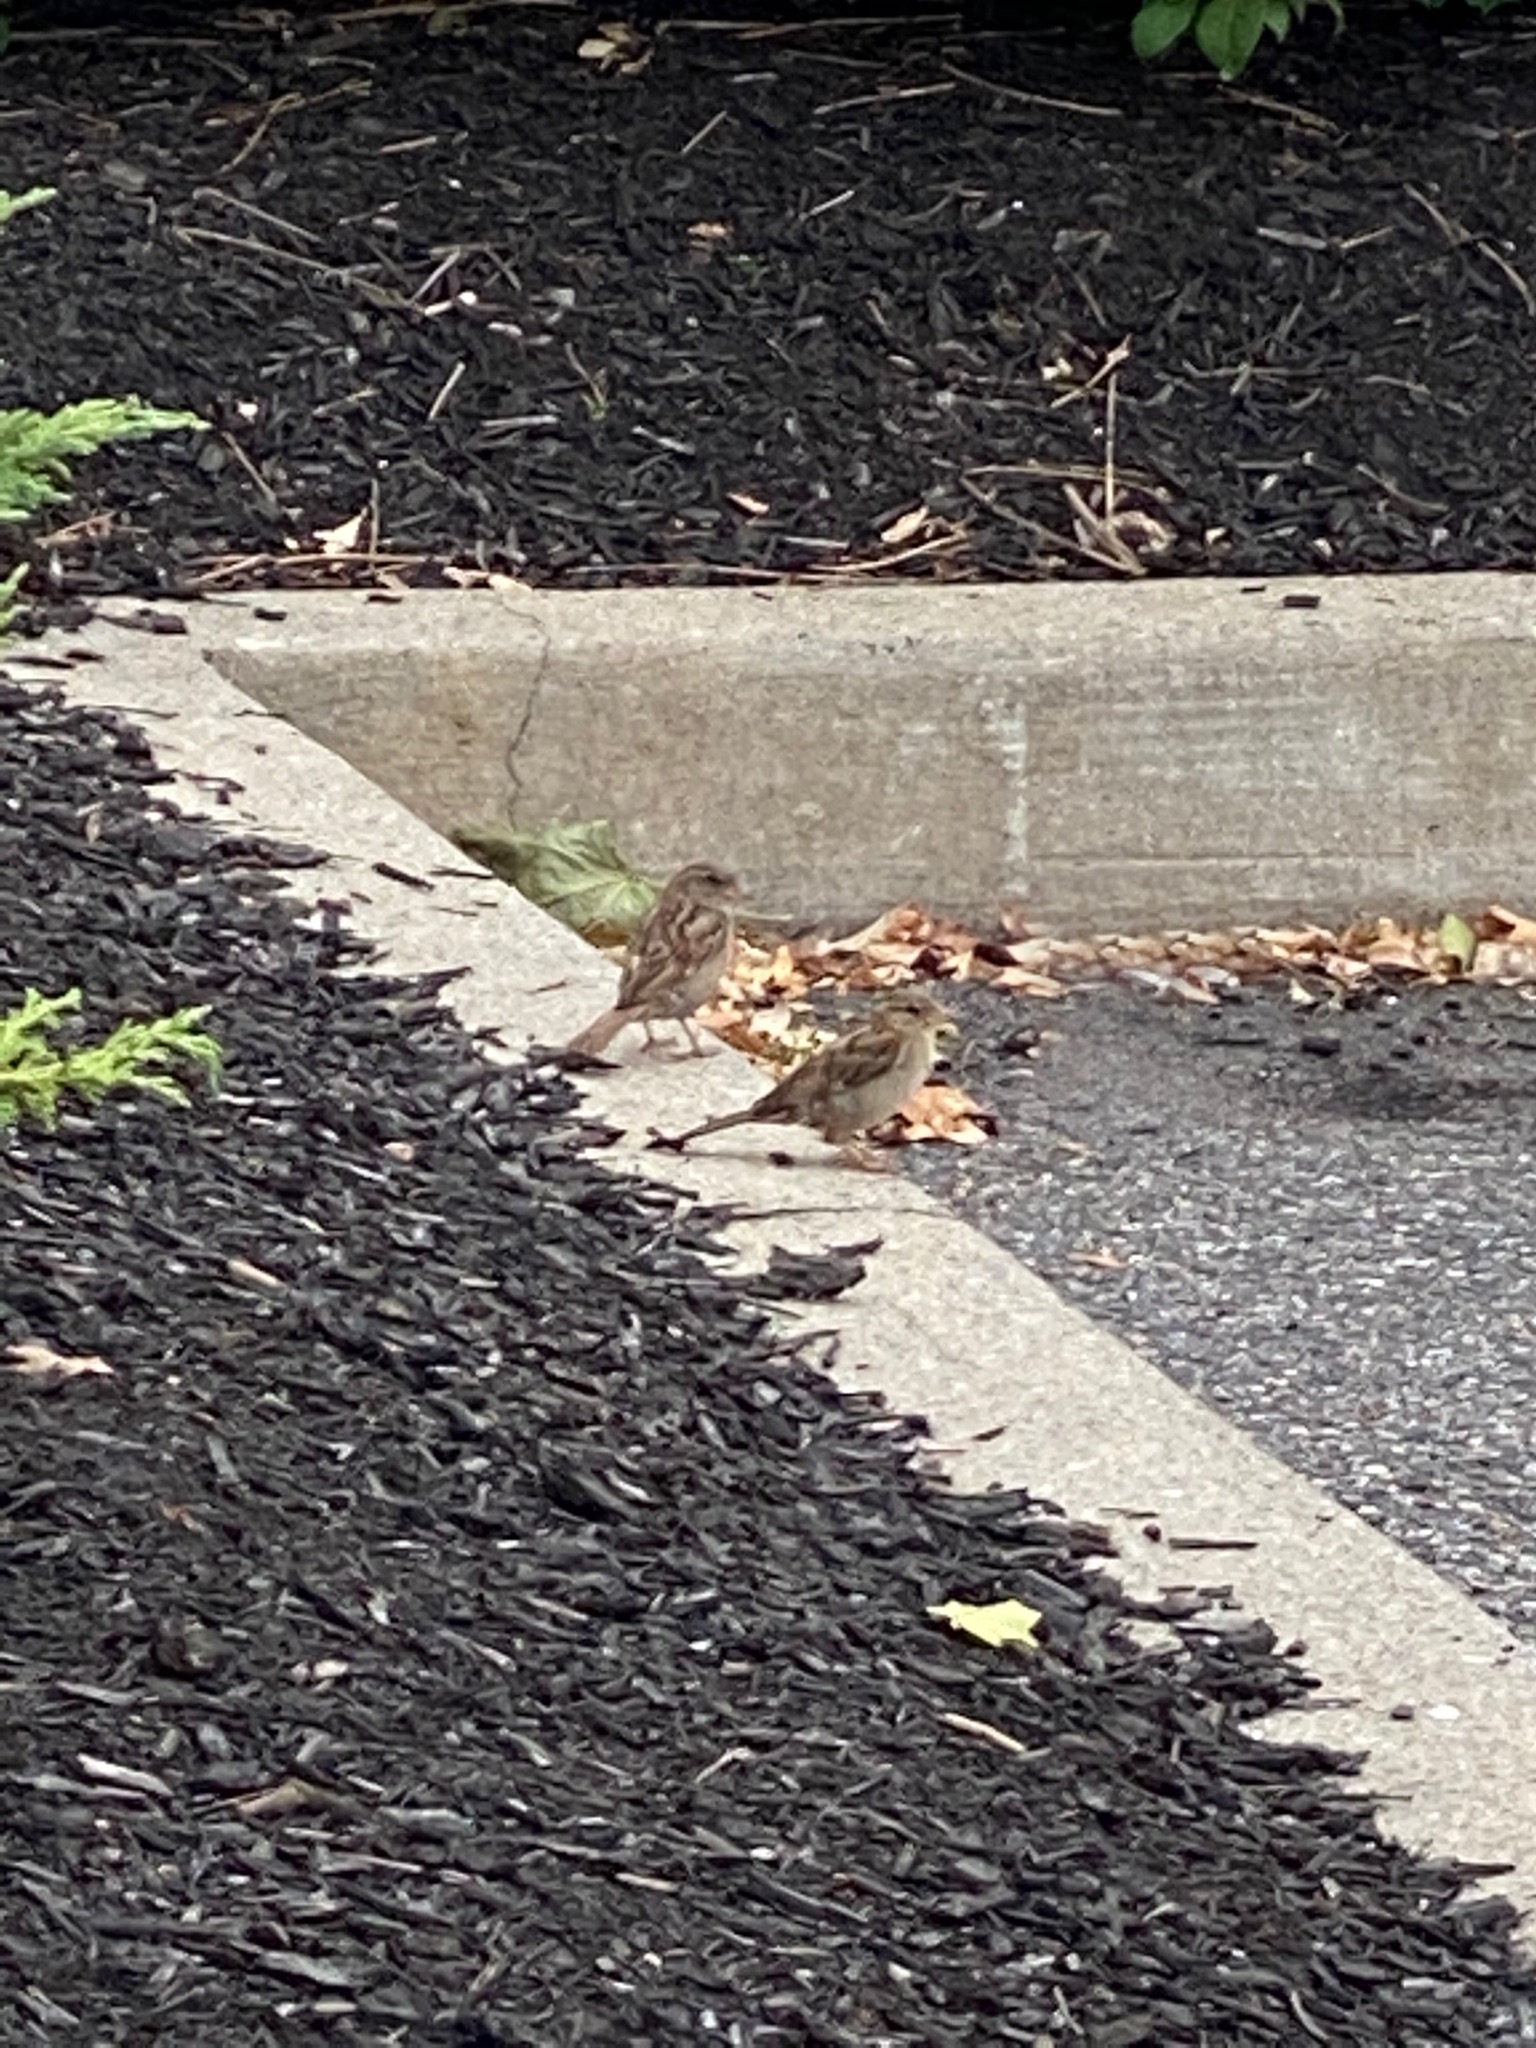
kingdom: Animalia
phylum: Chordata
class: Aves
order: Passeriformes
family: Passeridae
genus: Passer
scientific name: Passer domesticus
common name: House sparrow
